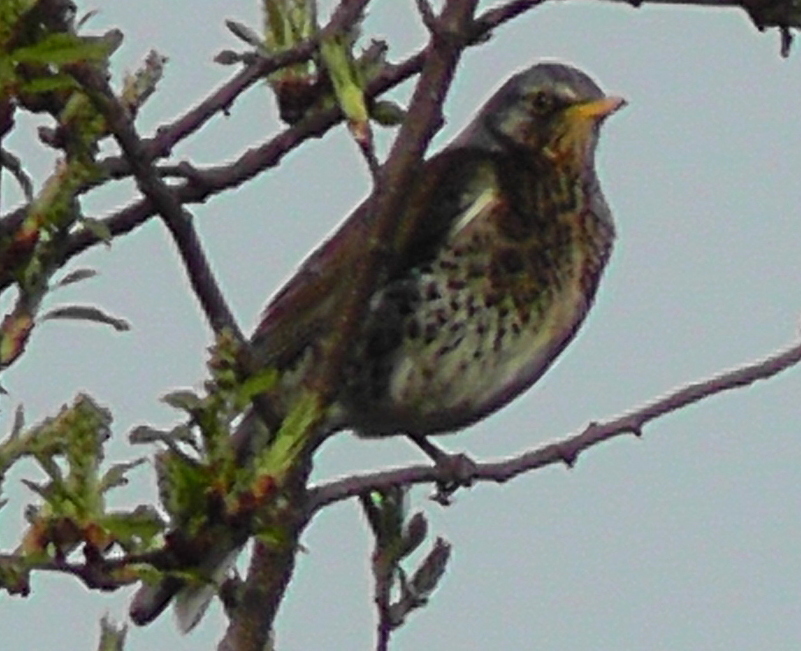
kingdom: Animalia
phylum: Chordata
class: Aves
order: Passeriformes
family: Turdidae
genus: Turdus
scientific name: Turdus pilaris
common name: Fieldfare
